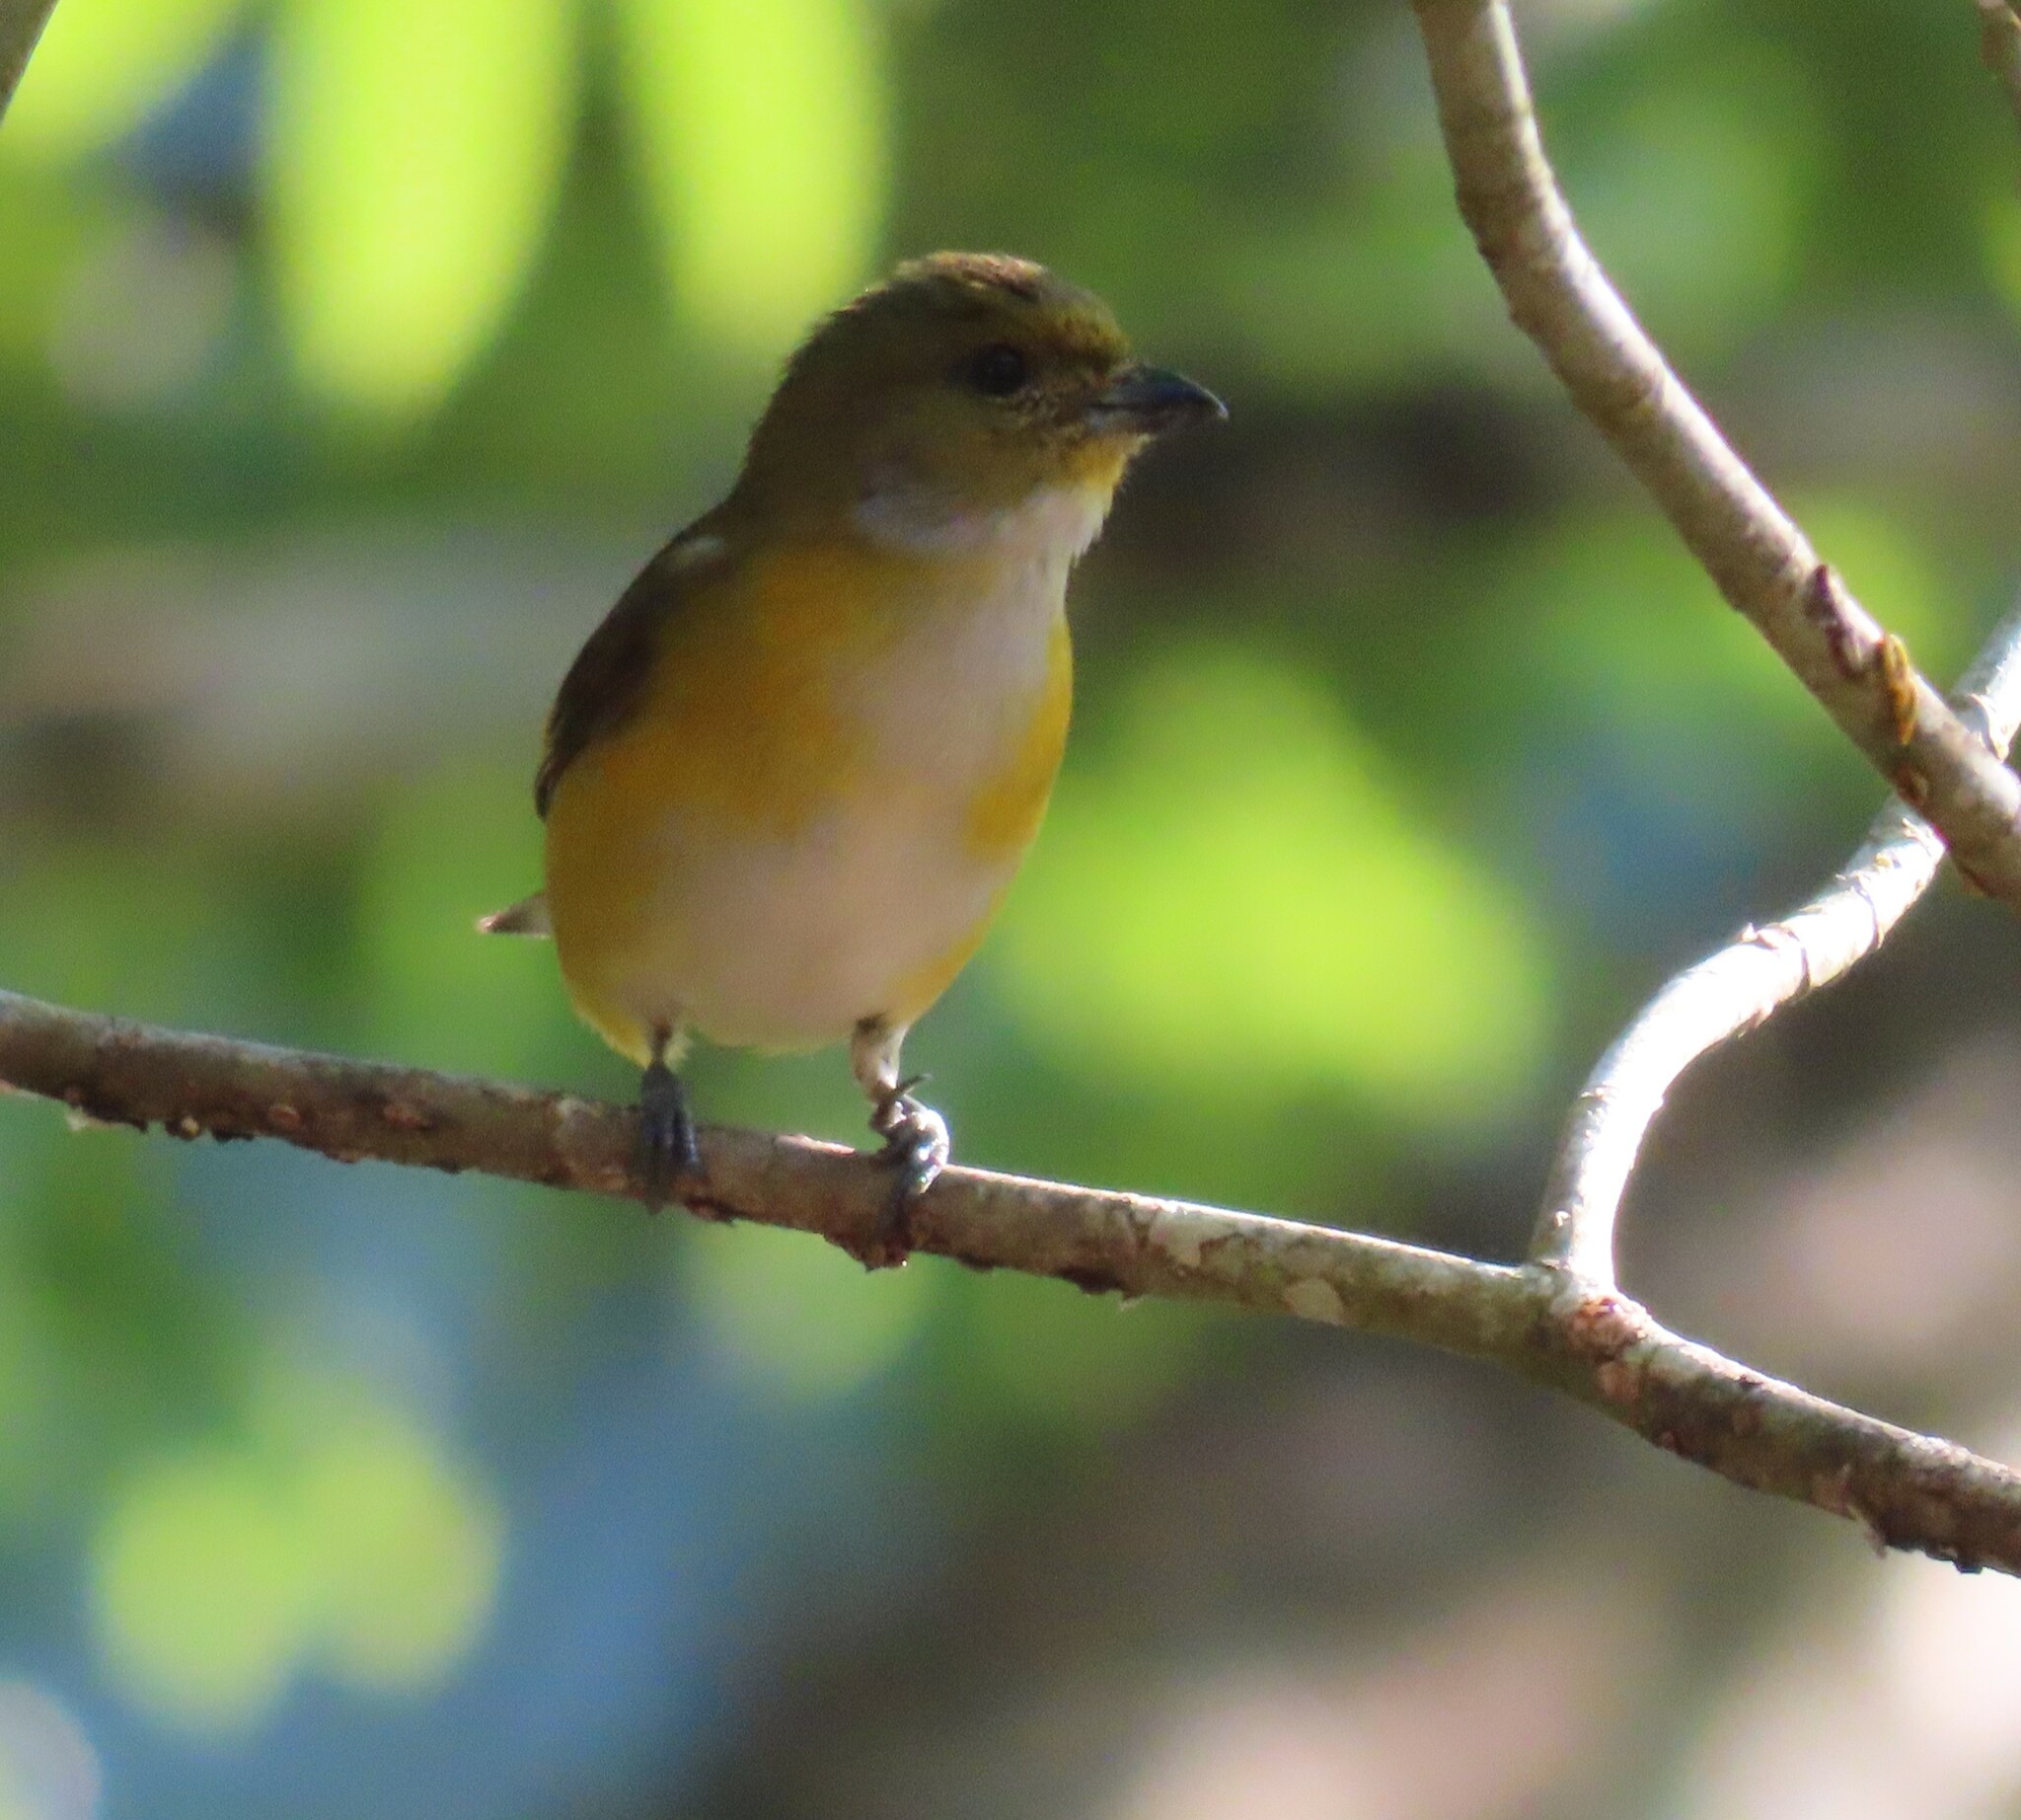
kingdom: Animalia
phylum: Chordata
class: Aves
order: Passeriformes
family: Fringillidae
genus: Euphonia
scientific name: Euphonia hirundinacea
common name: Yellow-throated euphonia
